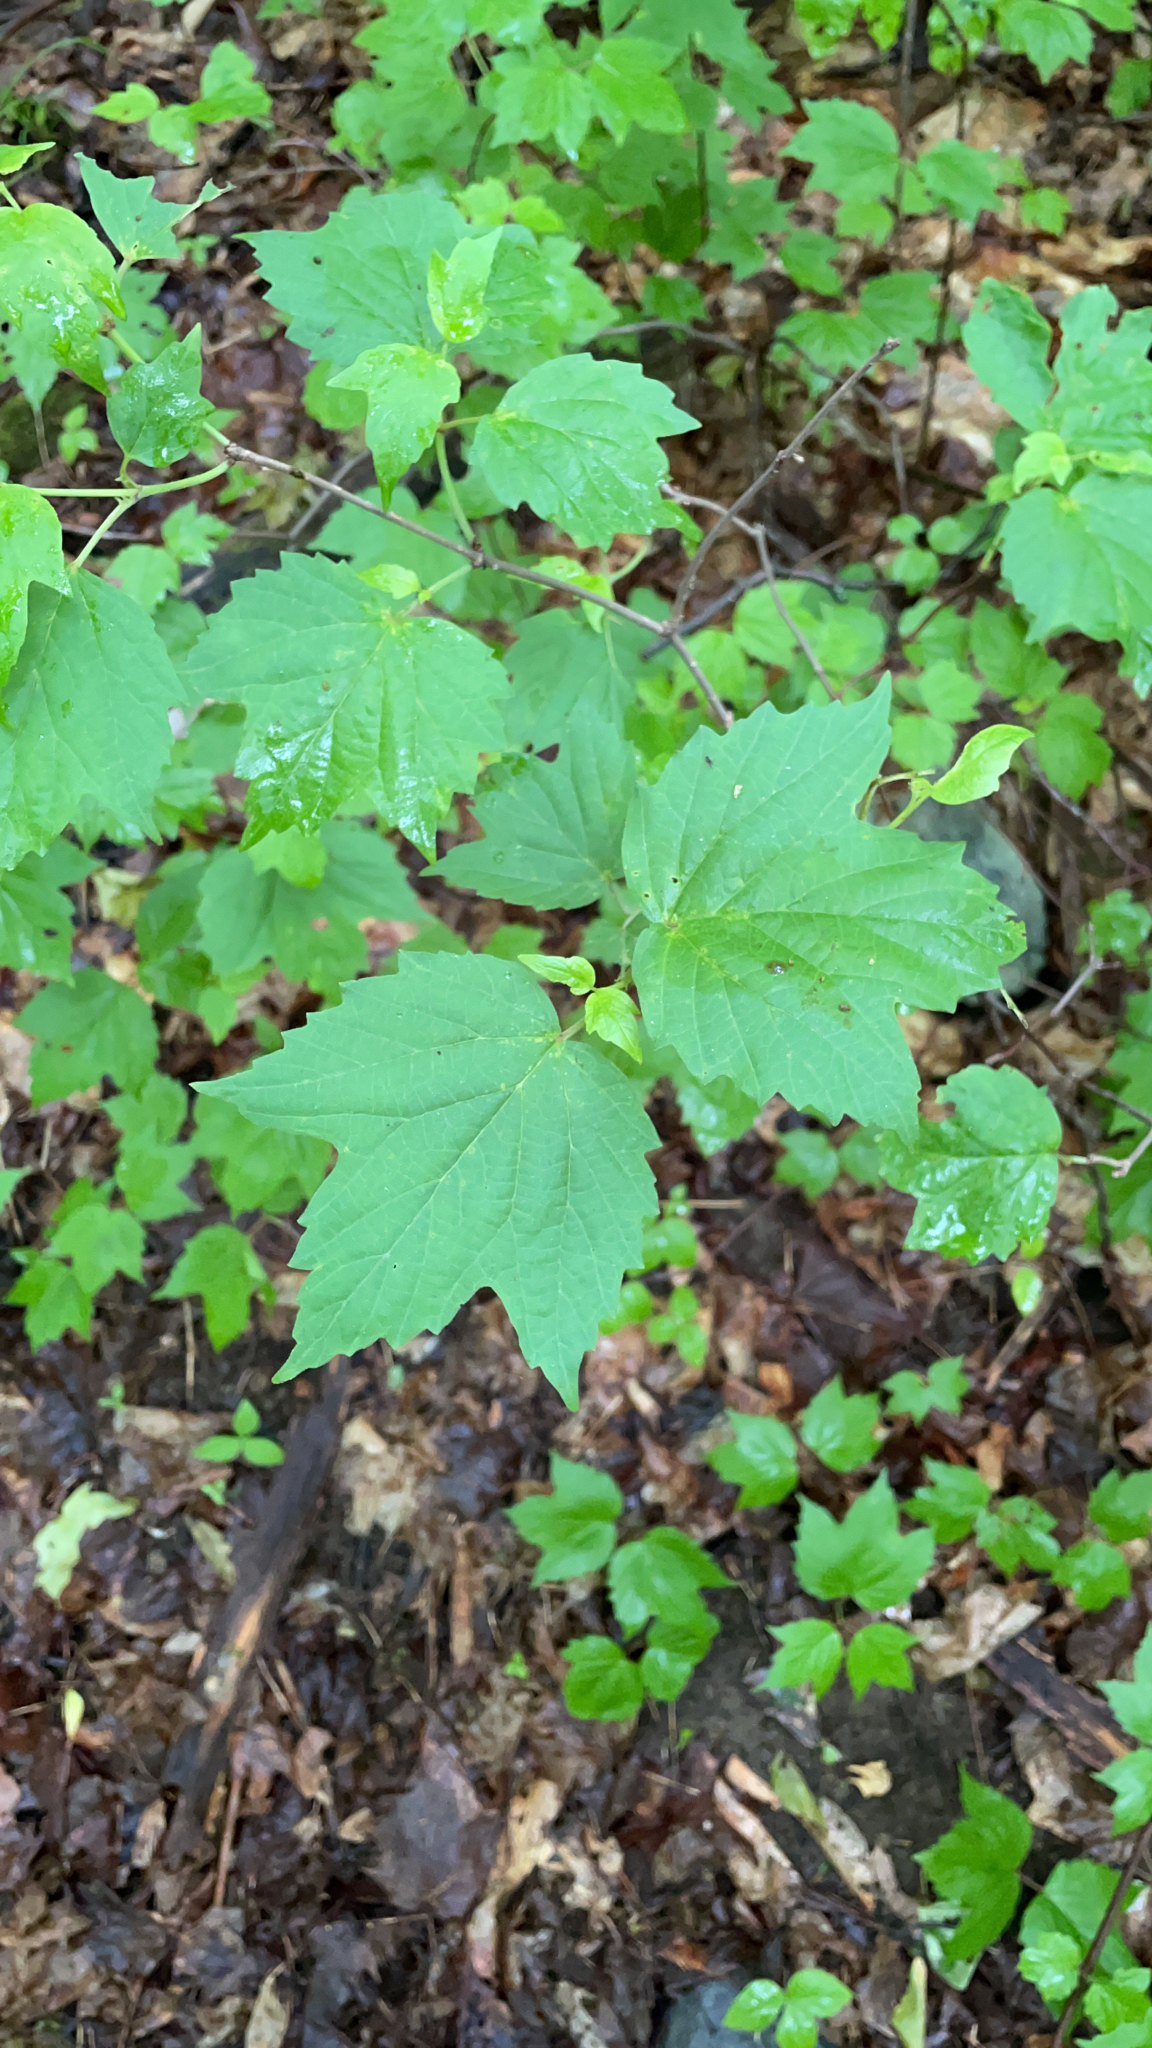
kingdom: Plantae
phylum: Tracheophyta
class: Magnoliopsida
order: Dipsacales
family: Viburnaceae
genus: Viburnum
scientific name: Viburnum acerifolium
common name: Dockmackie
